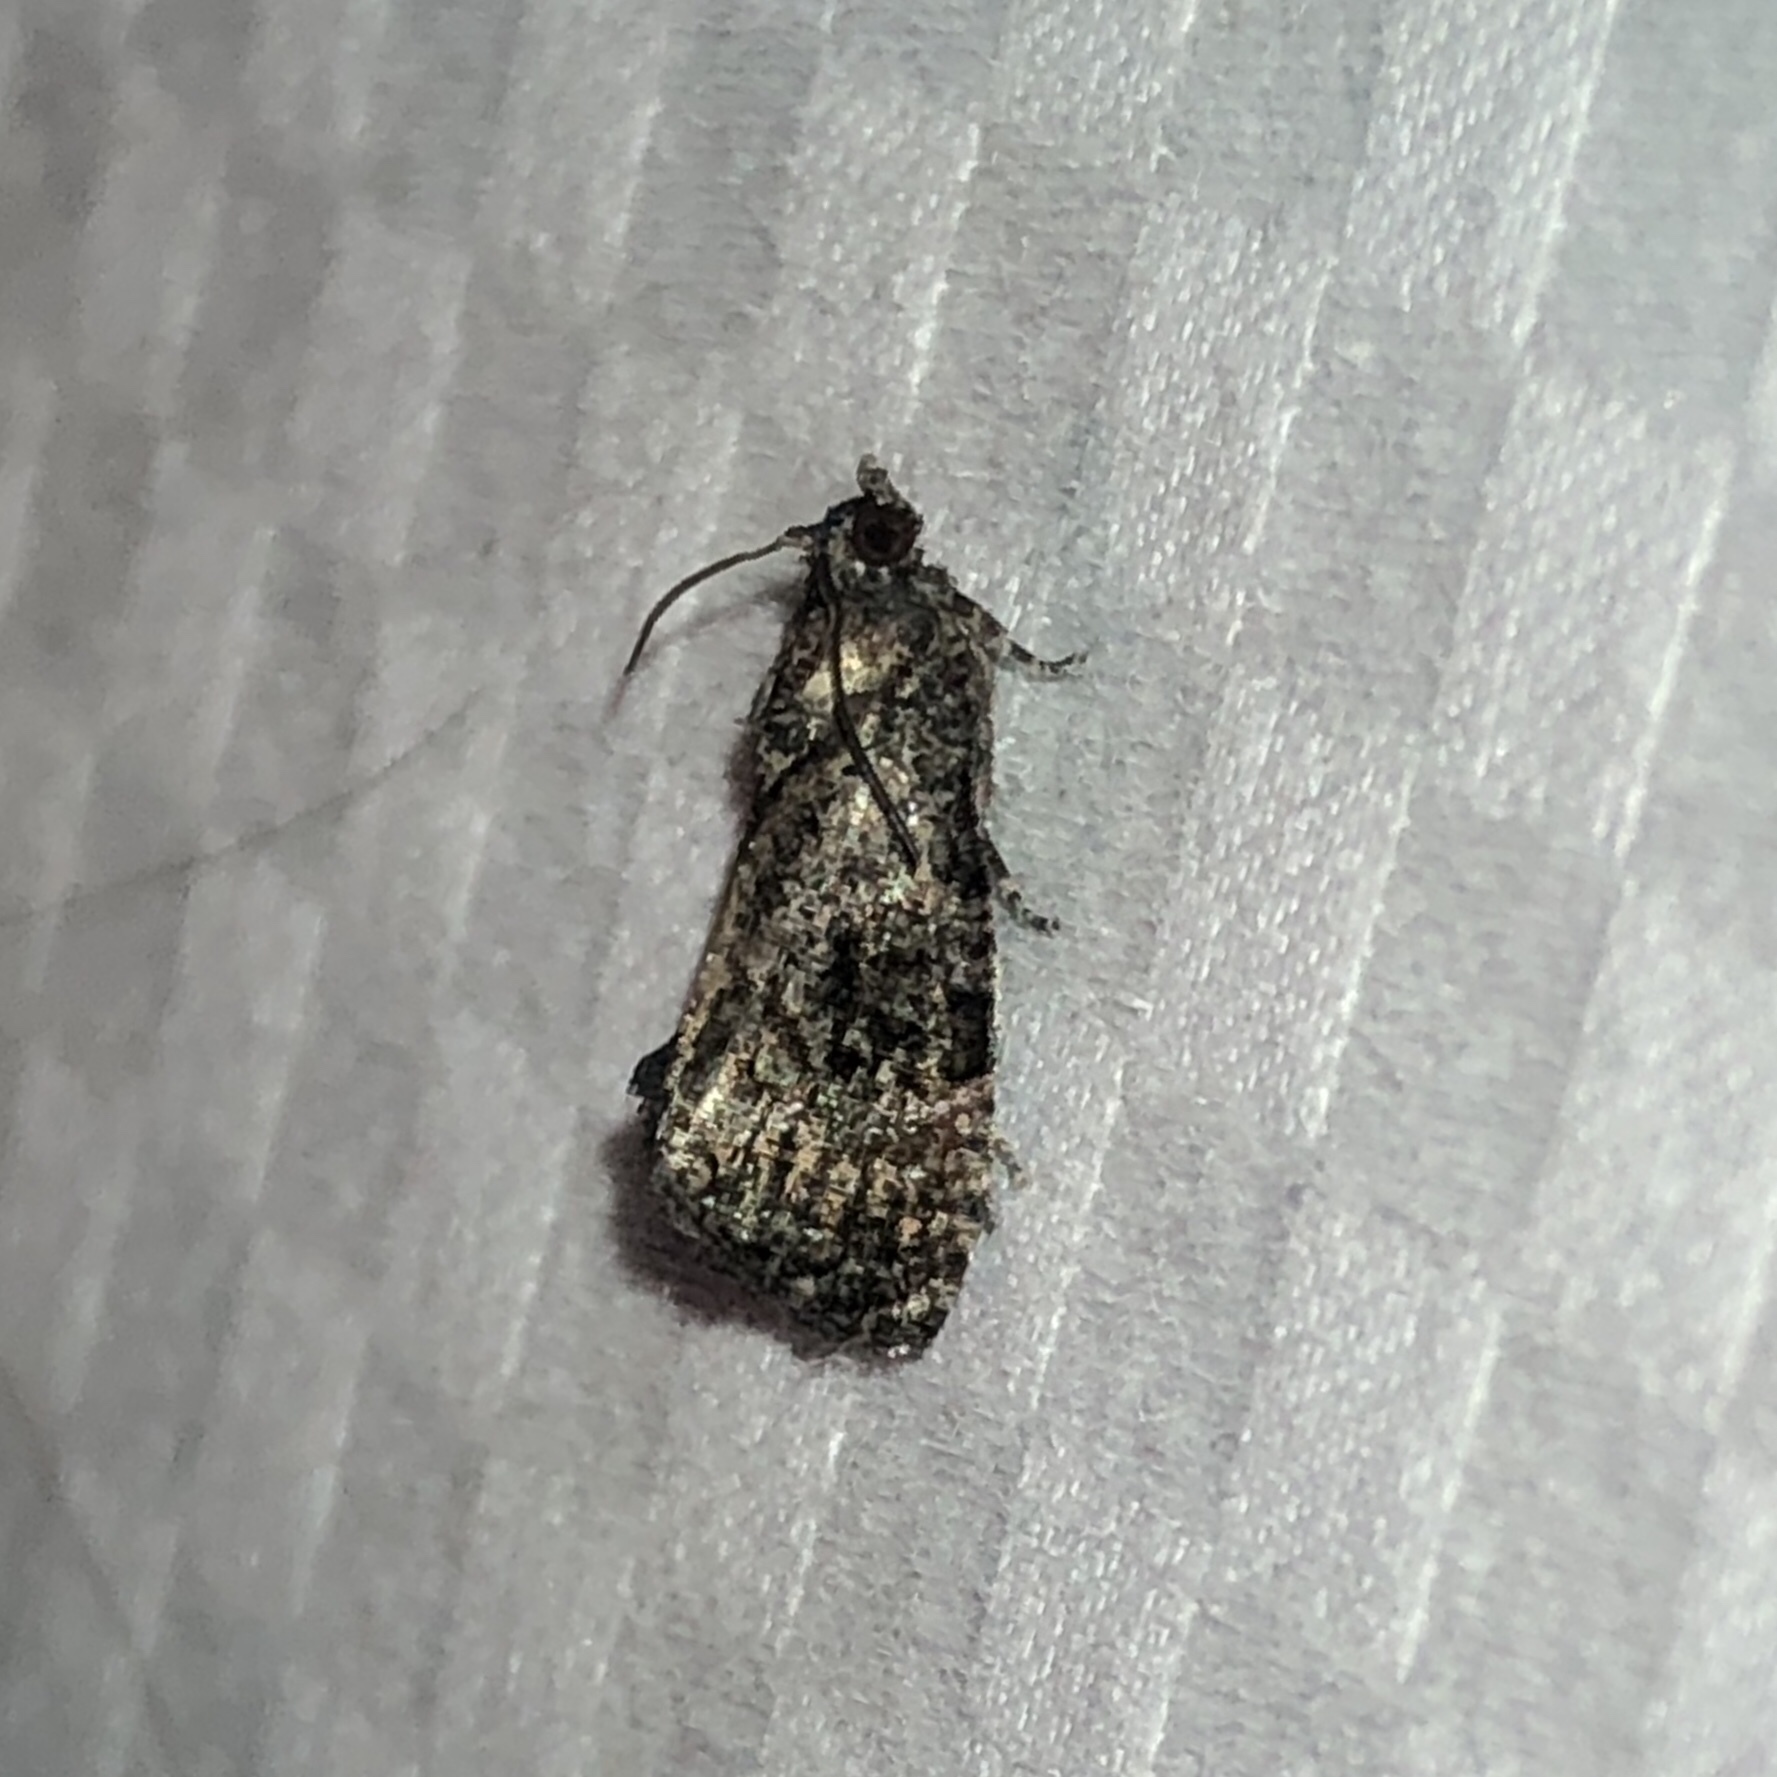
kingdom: Animalia
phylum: Arthropoda
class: Insecta
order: Lepidoptera
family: Tortricidae
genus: Gymnandrosoma
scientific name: Gymnandrosoma punctidiscanum
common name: Dotted ecdytolopha moth
